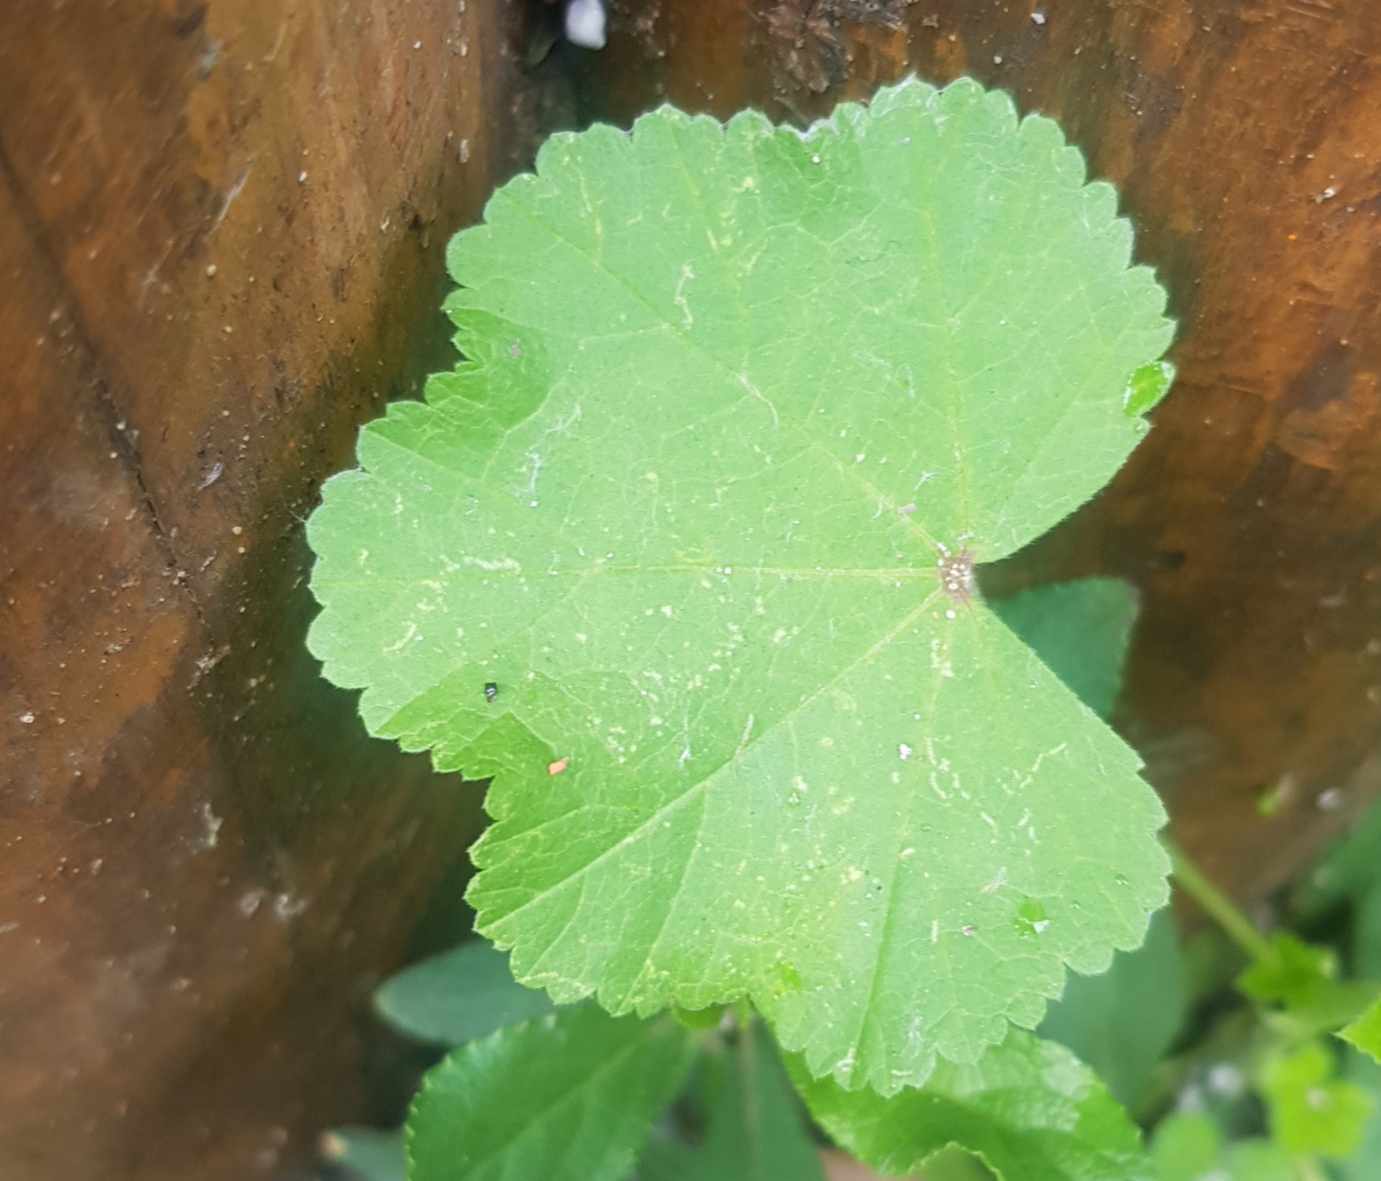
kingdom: Plantae
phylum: Tracheophyta
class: Magnoliopsida
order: Malvales
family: Malvaceae
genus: Malva
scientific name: Malva neglecta
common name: Common mallow
